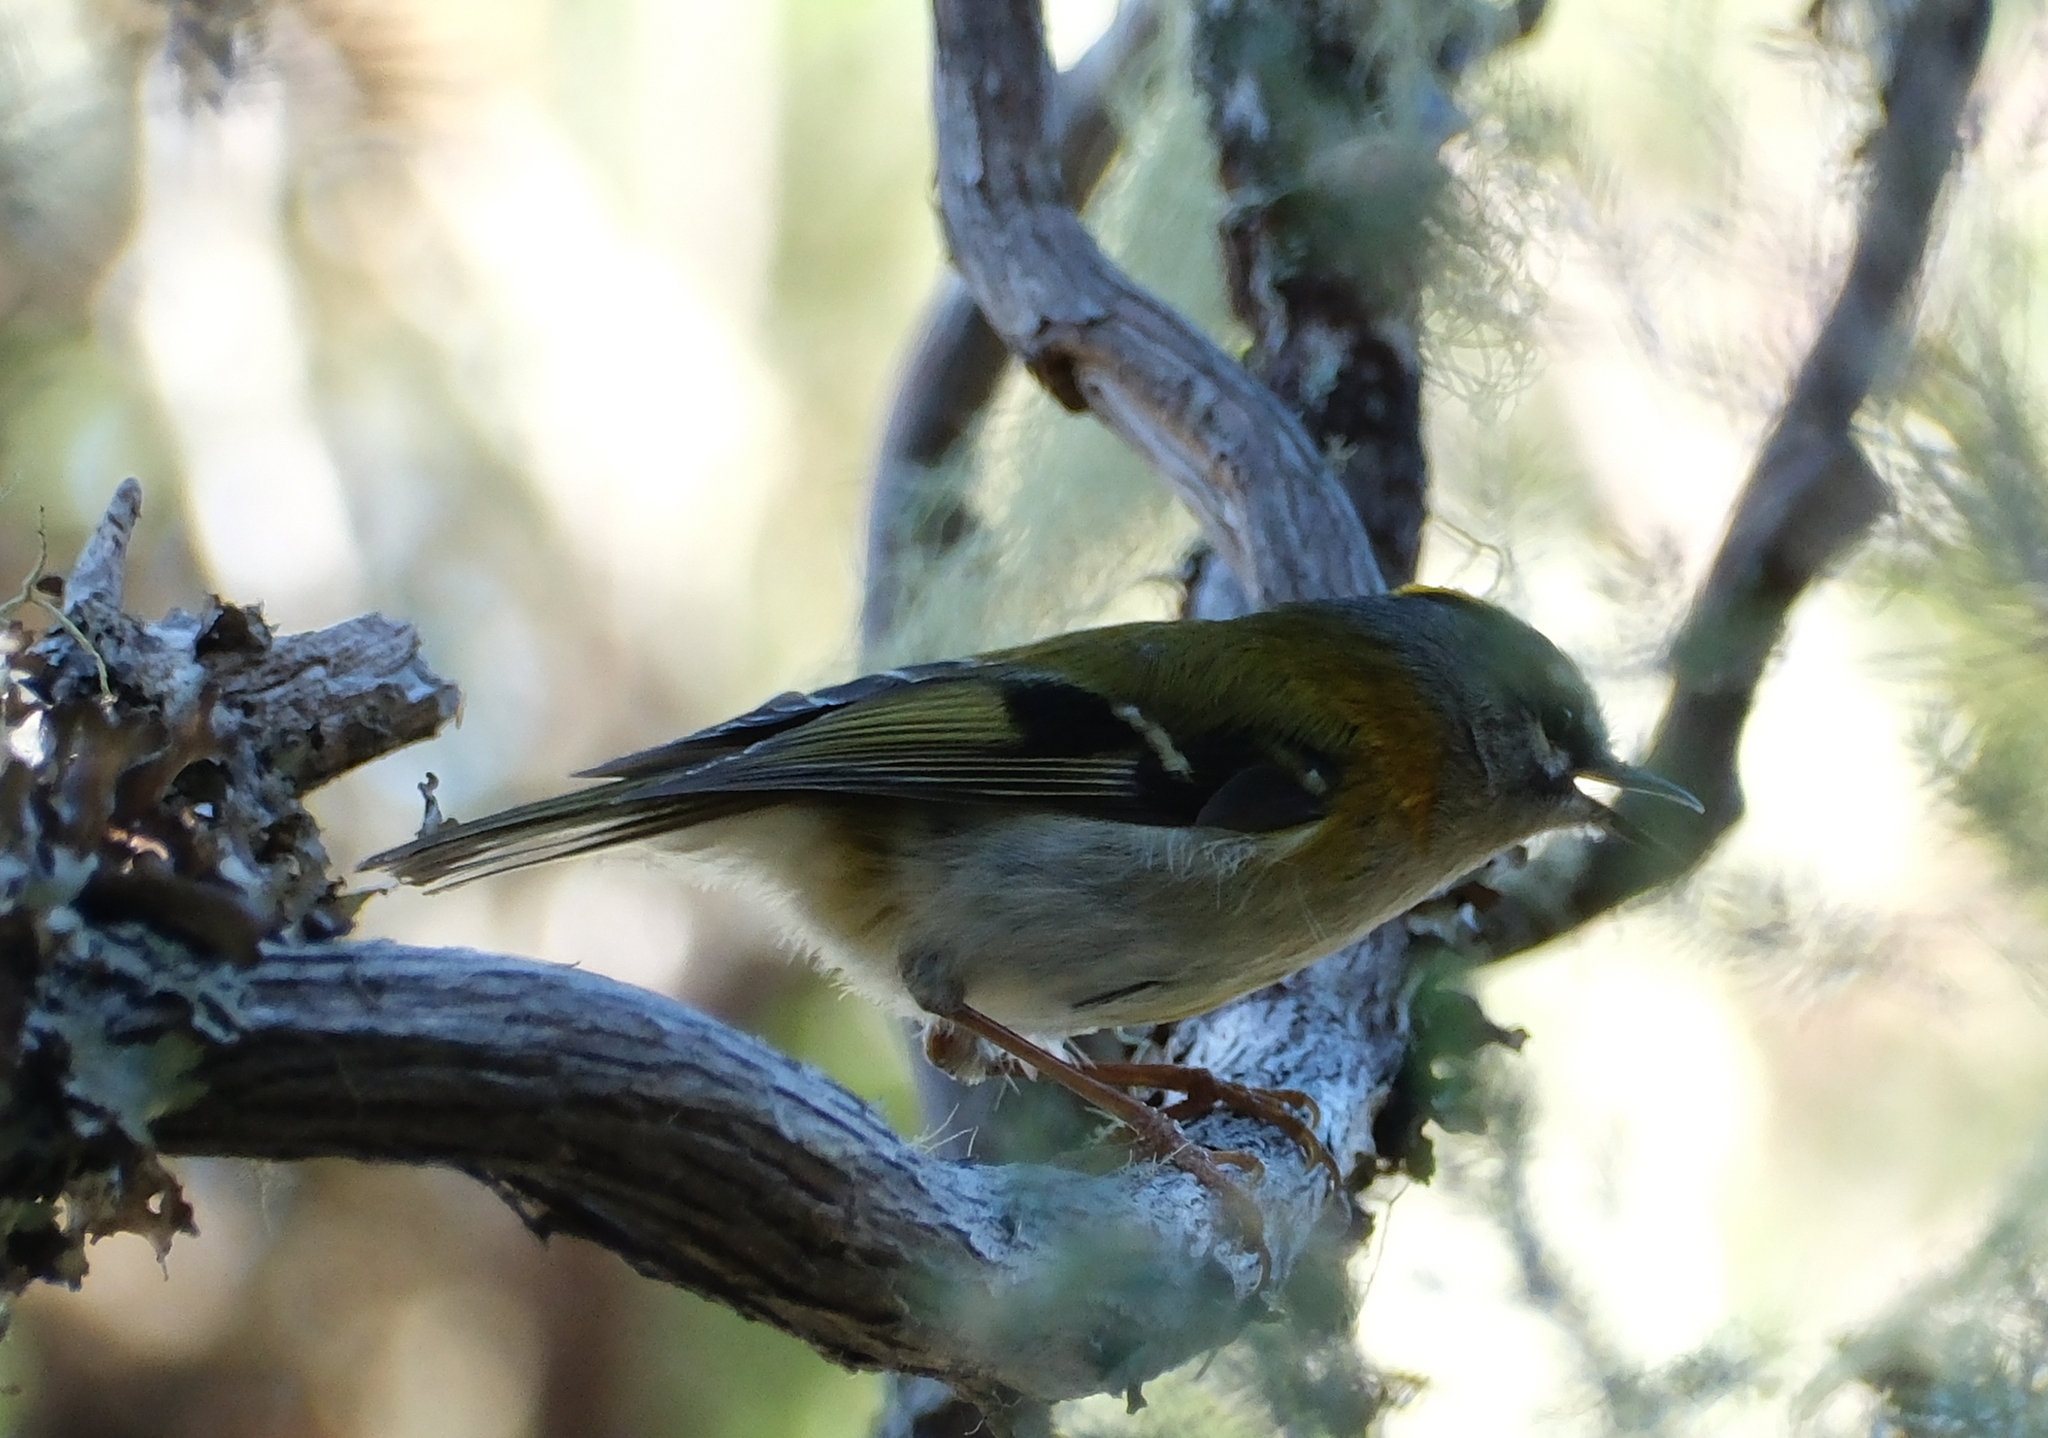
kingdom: Animalia
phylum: Chordata
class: Aves
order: Passeriformes
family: Regulidae
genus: Regulus
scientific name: Regulus madeirensis
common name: Madeira firecrest
